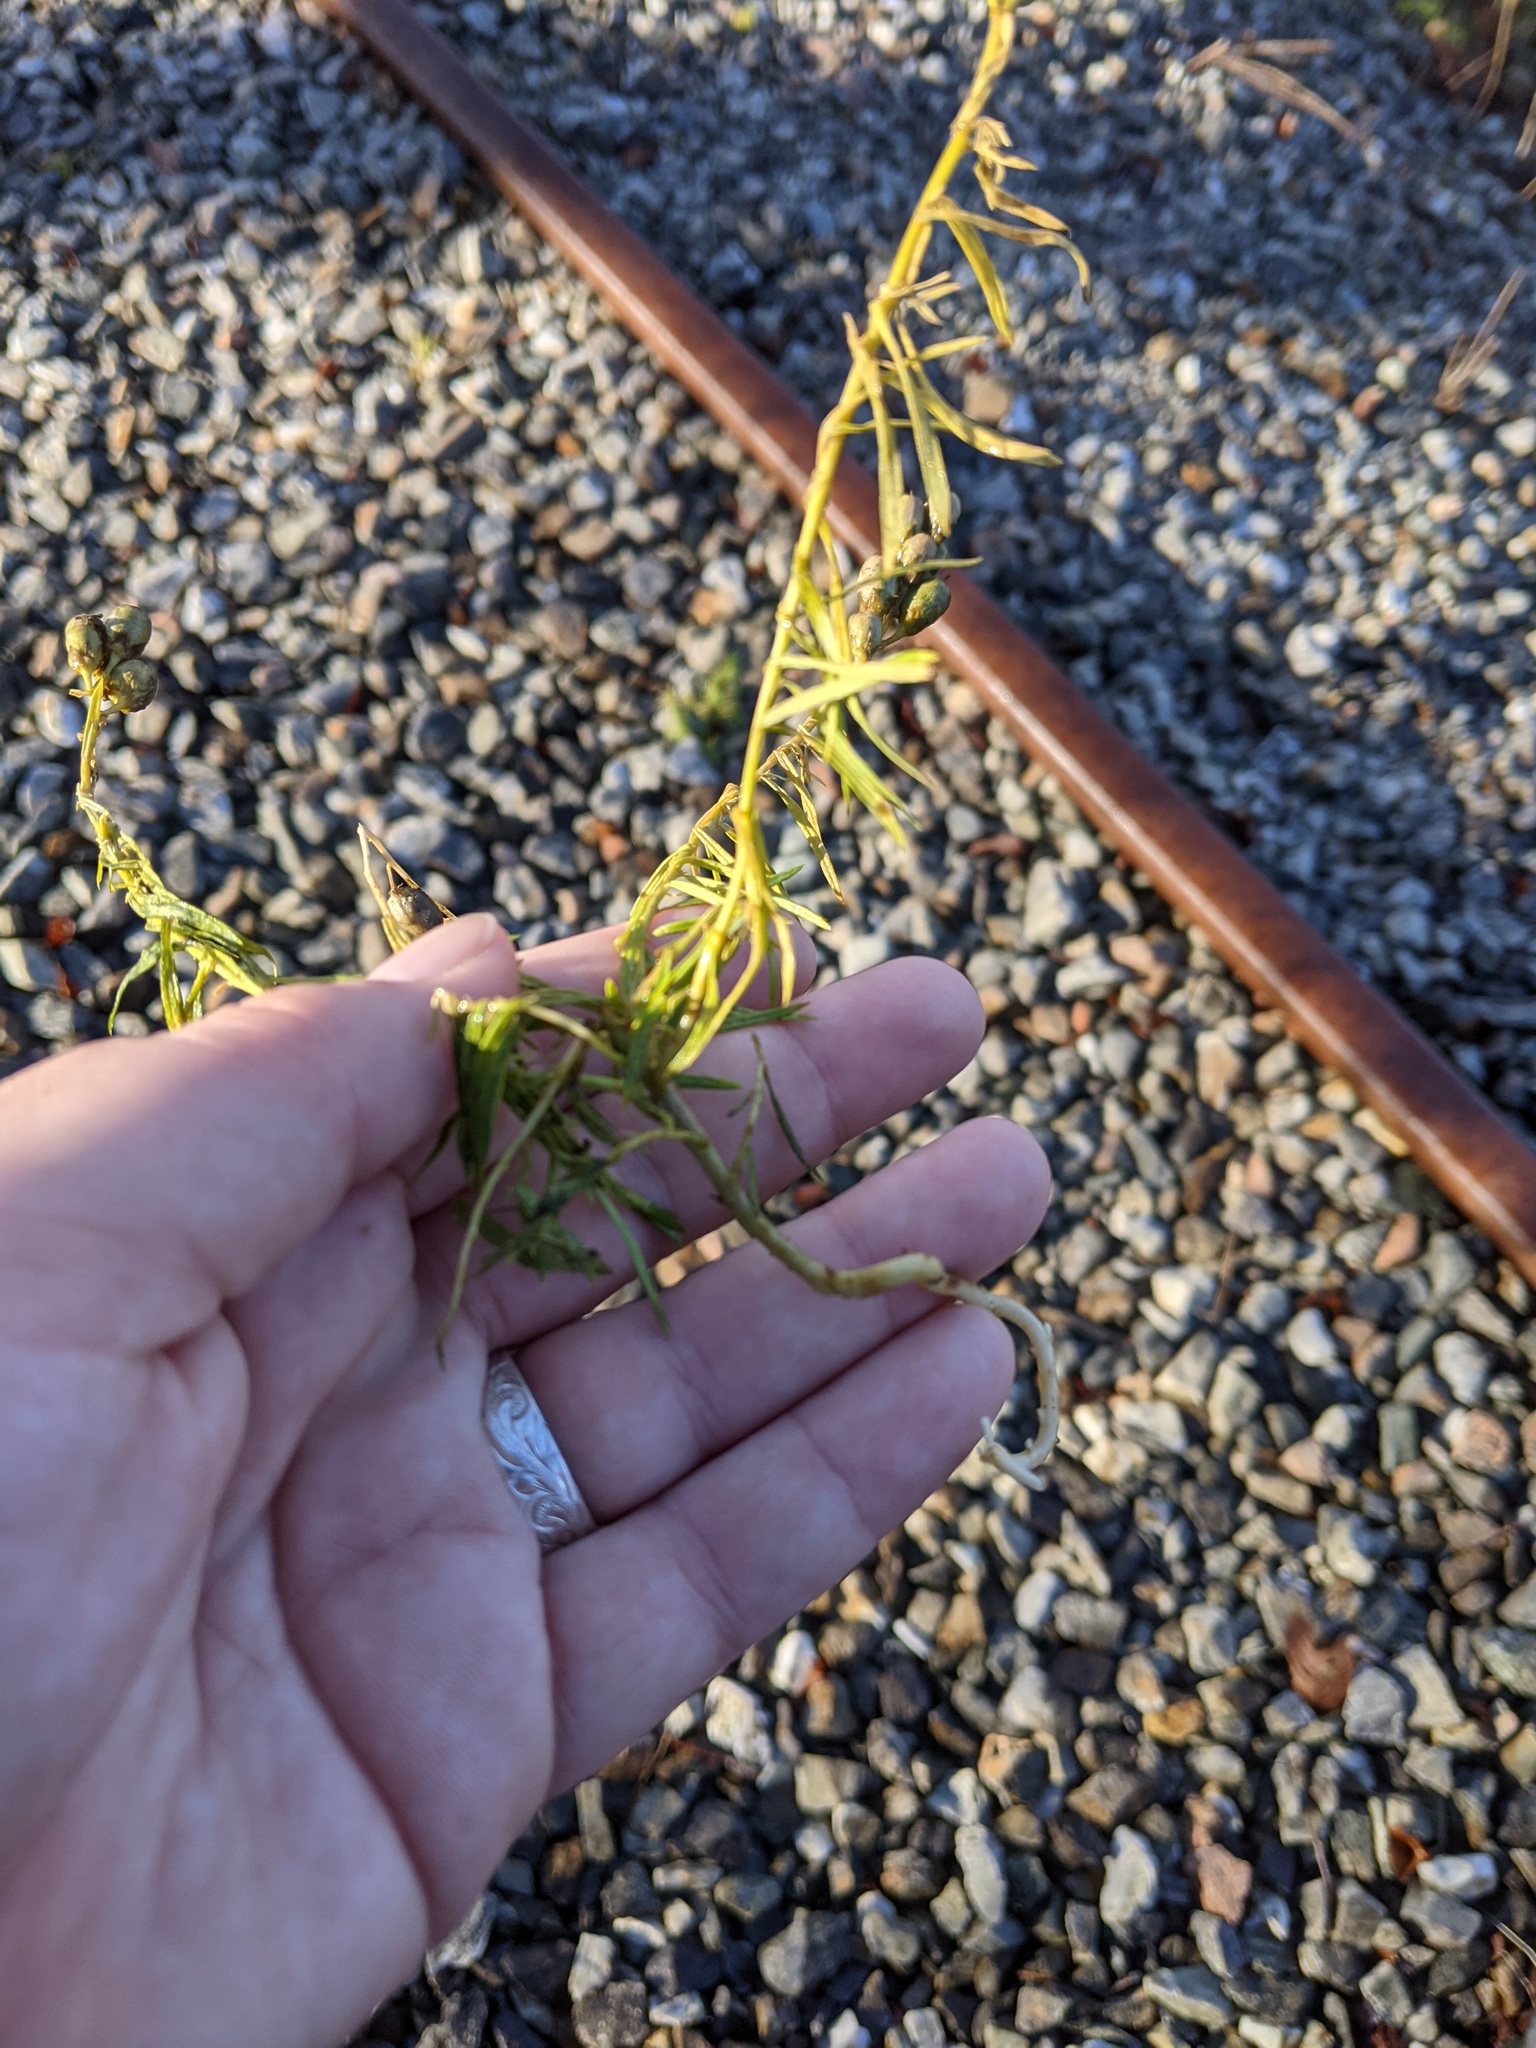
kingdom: Plantae
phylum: Tracheophyta
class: Magnoliopsida
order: Lamiales
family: Plantaginaceae
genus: Linaria
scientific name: Linaria vulgaris
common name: Butter and eggs
